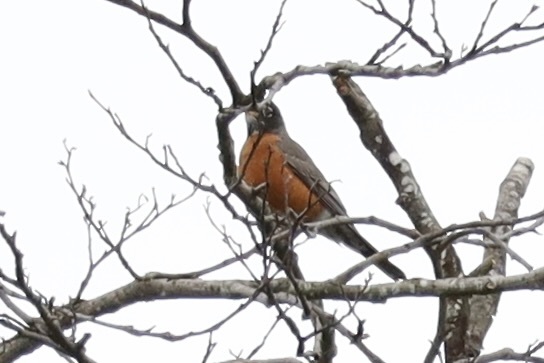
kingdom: Animalia
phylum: Chordata
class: Aves
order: Passeriformes
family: Turdidae
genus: Turdus
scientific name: Turdus migratorius
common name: American robin
